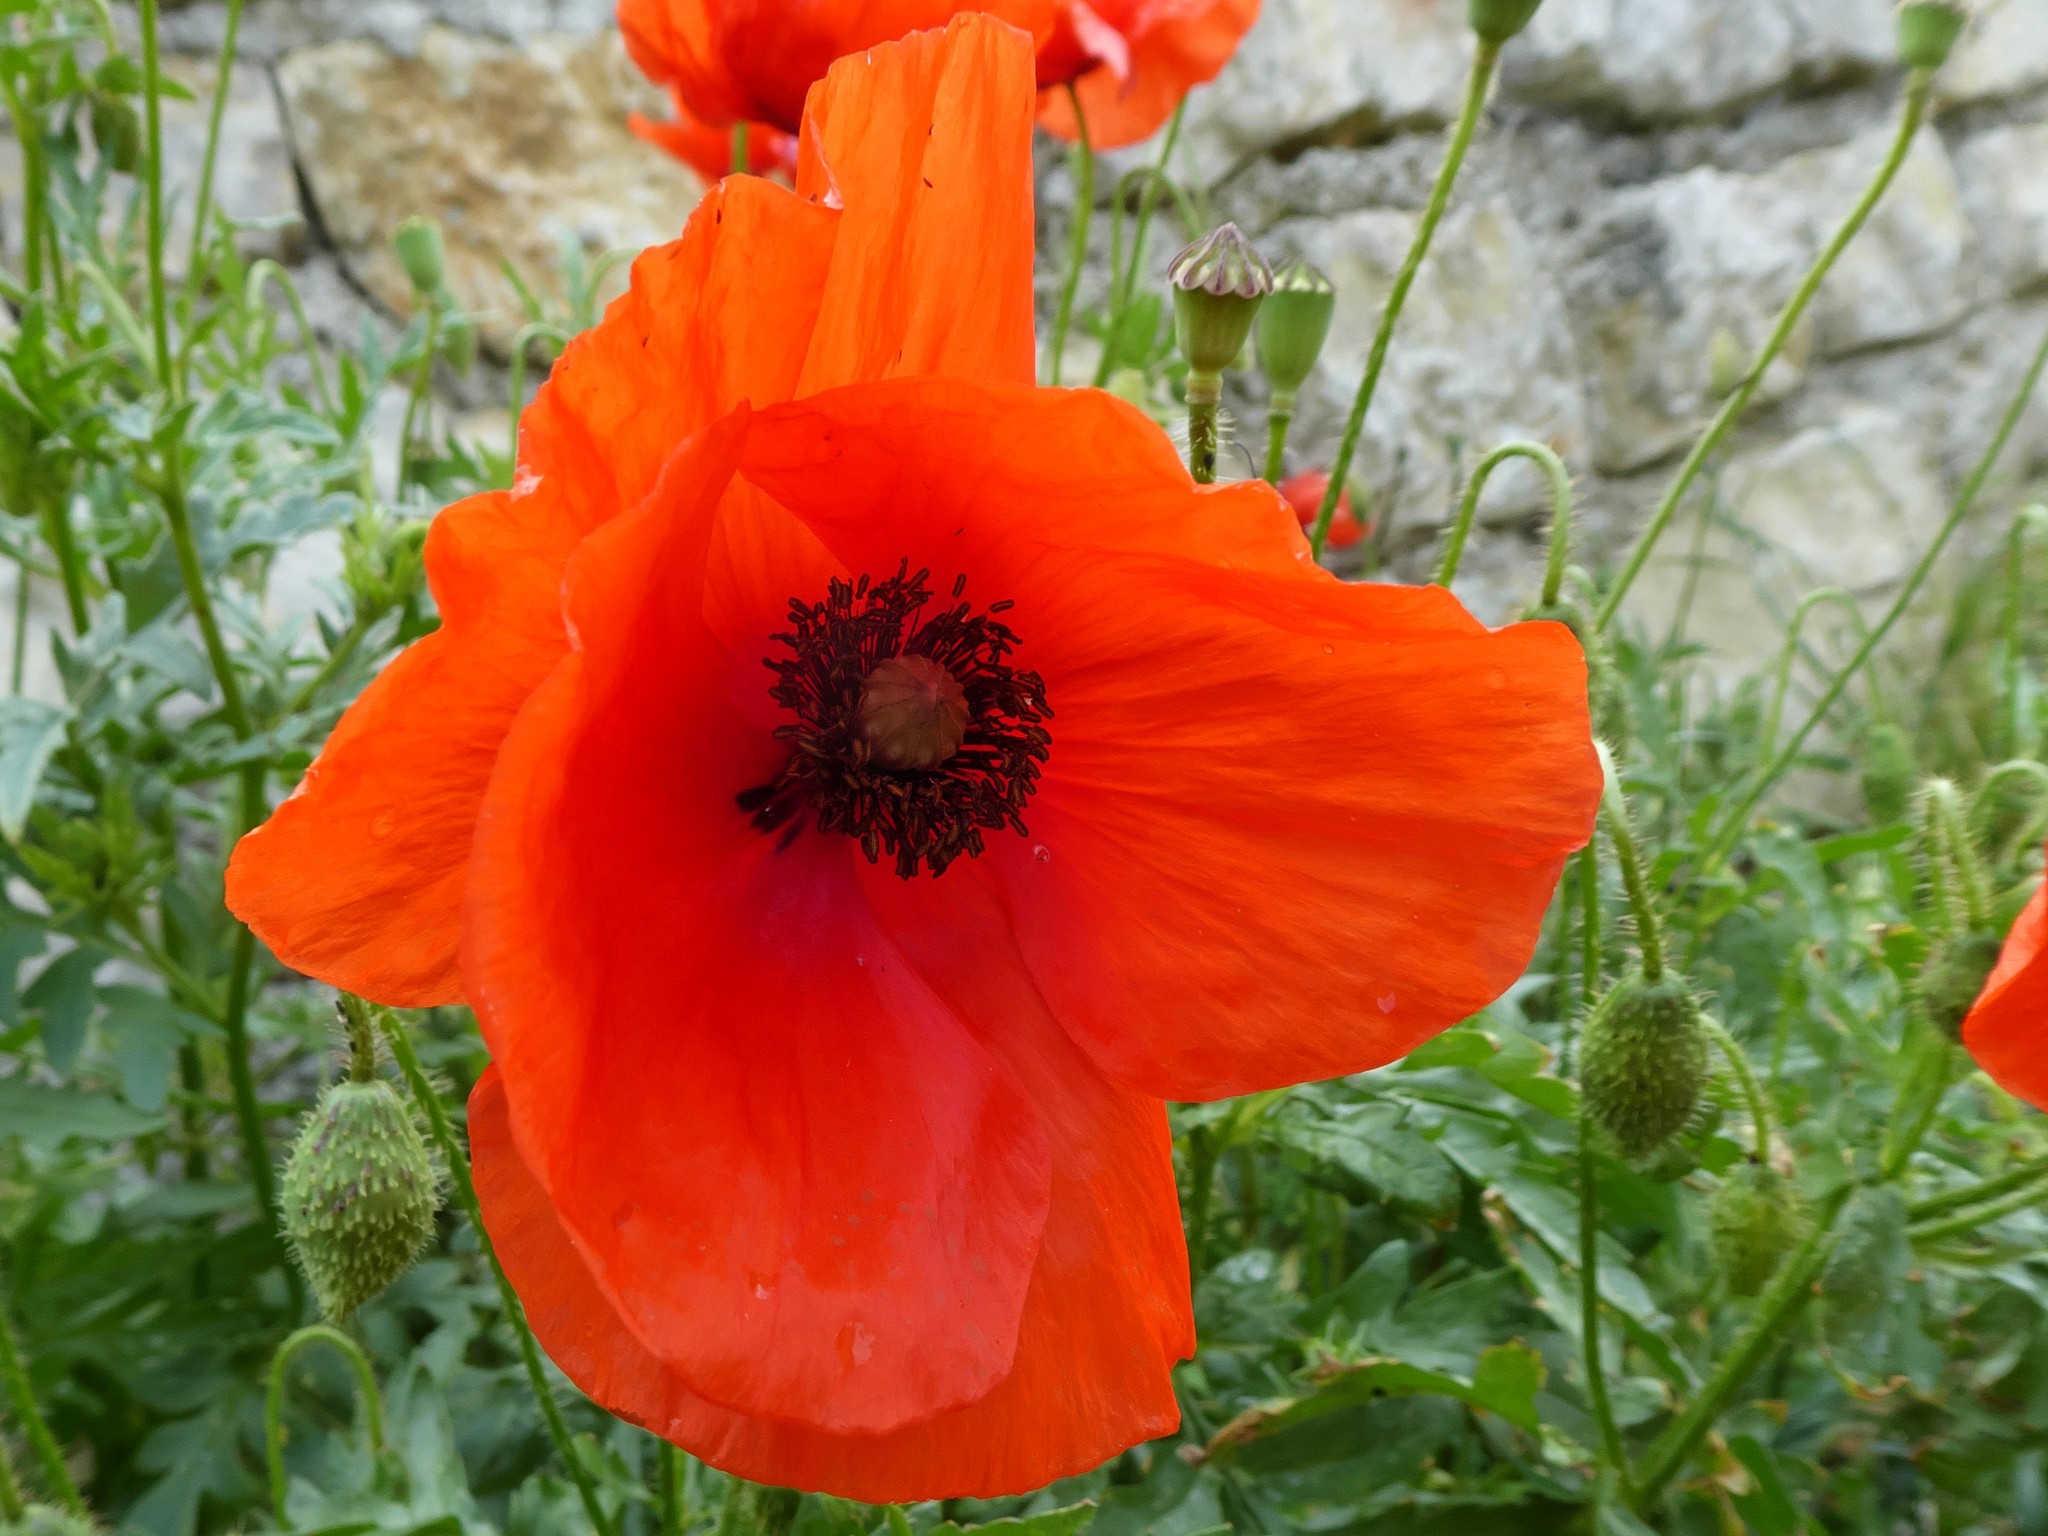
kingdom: Plantae
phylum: Tracheophyta
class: Magnoliopsida
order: Ranunculales
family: Papaveraceae
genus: Papaver
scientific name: Papaver rhoeas
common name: Corn poppy
